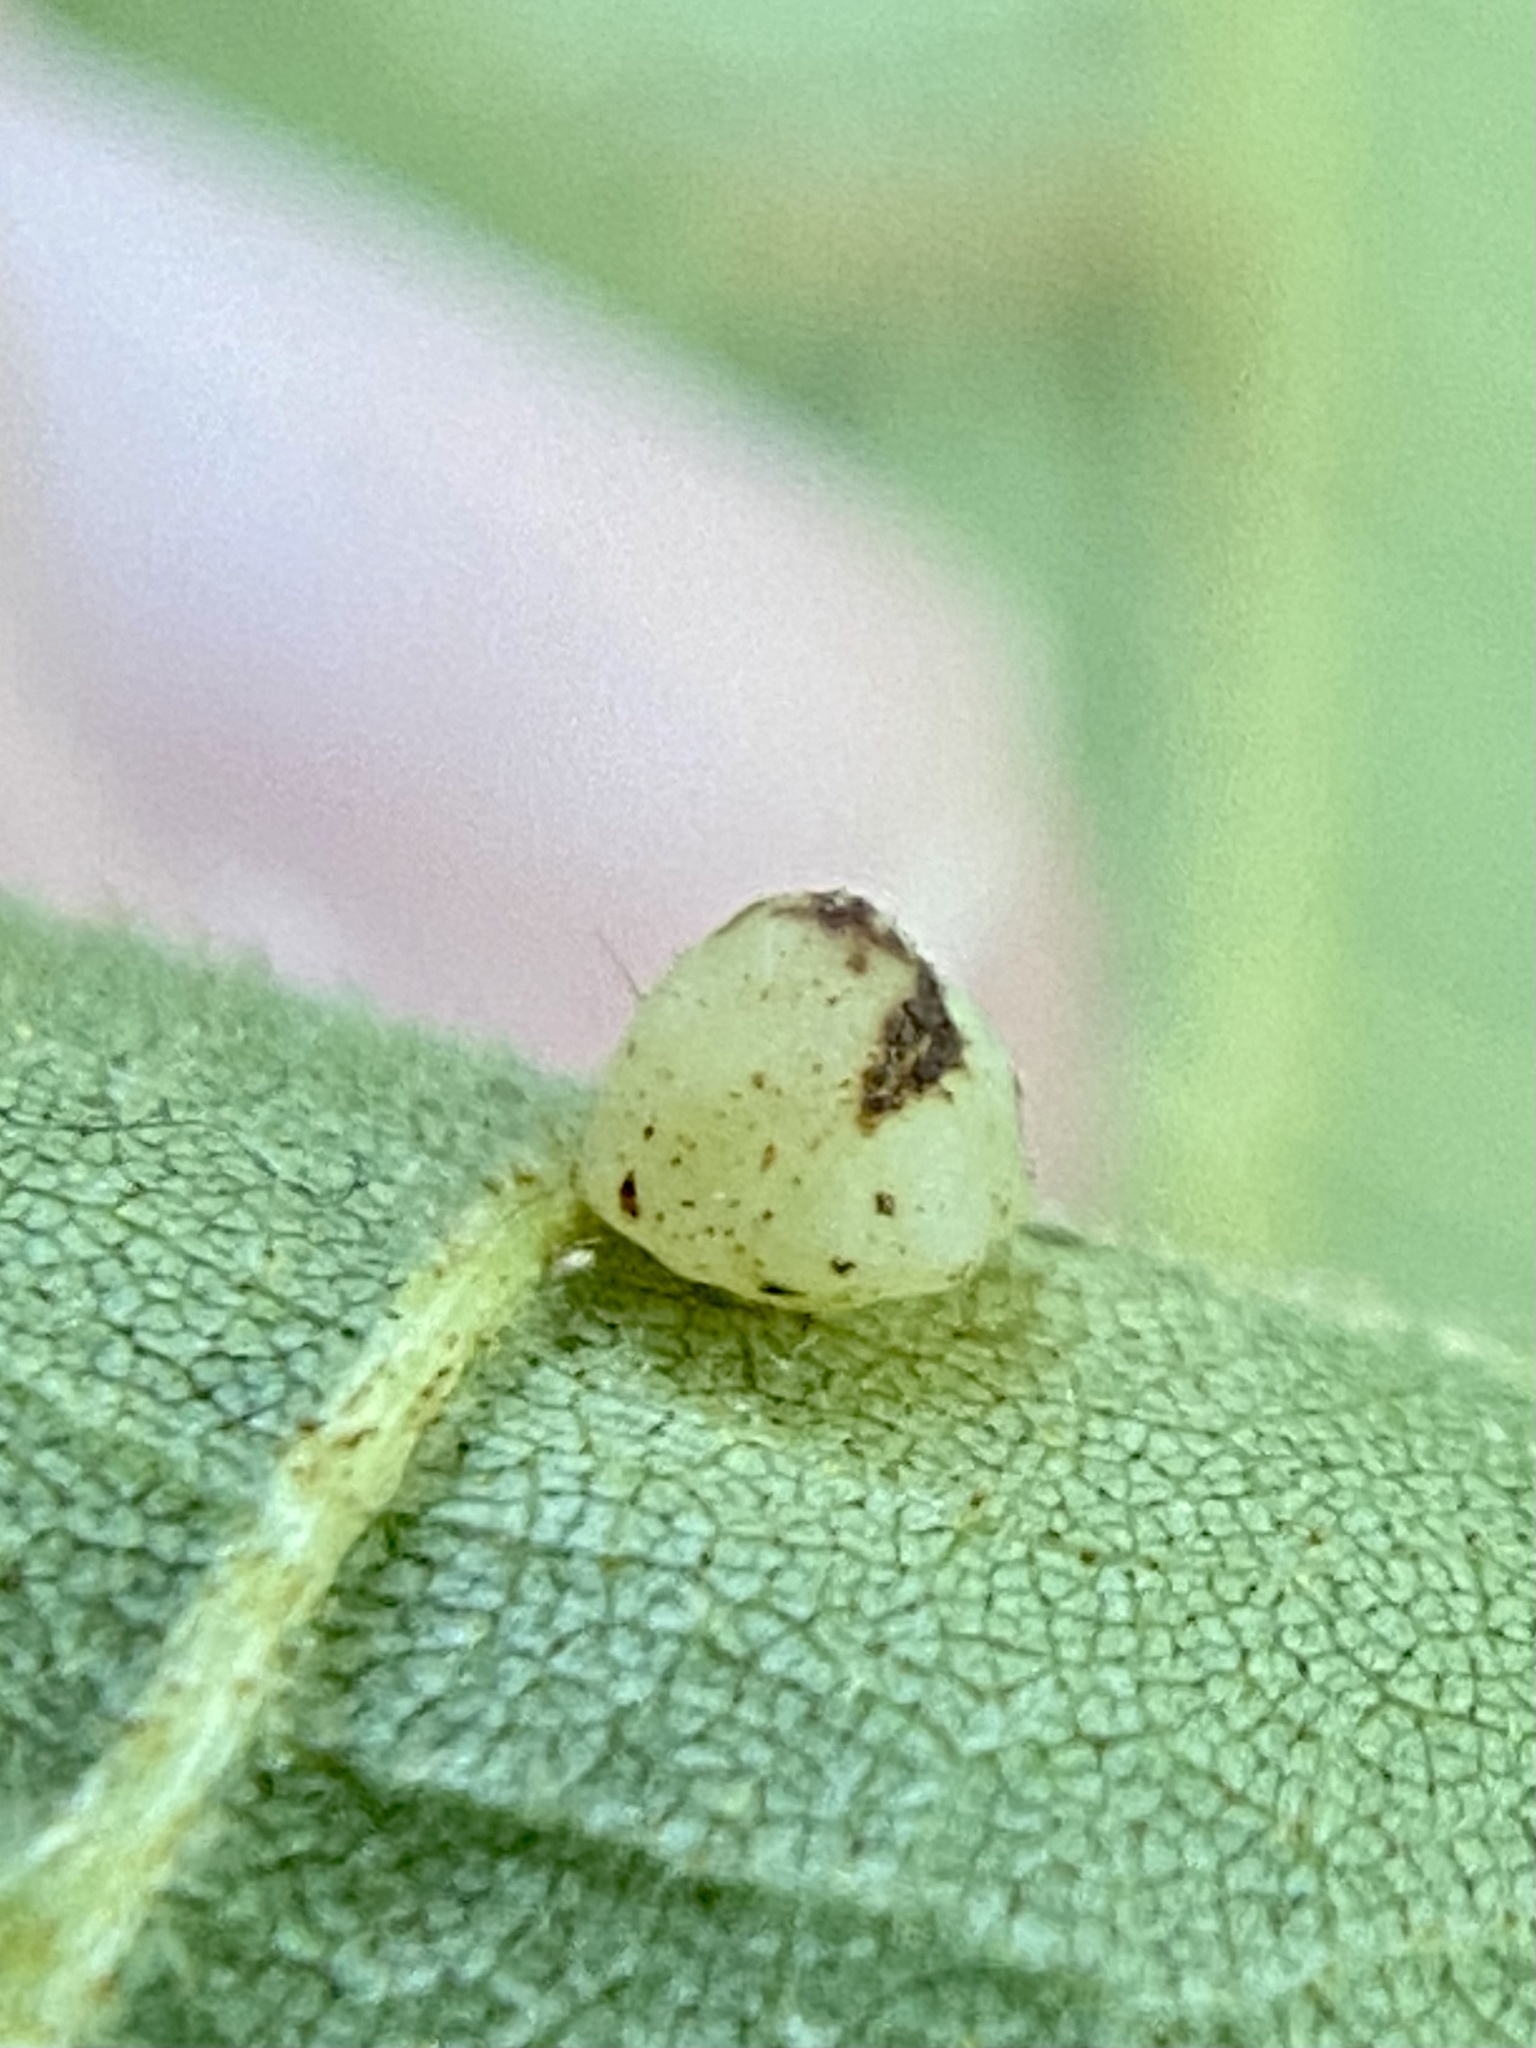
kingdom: Animalia
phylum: Arthropoda
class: Insecta
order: Diptera
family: Cecidomyiidae
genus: Caryomyia
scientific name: Caryomyia sanguinolenta
